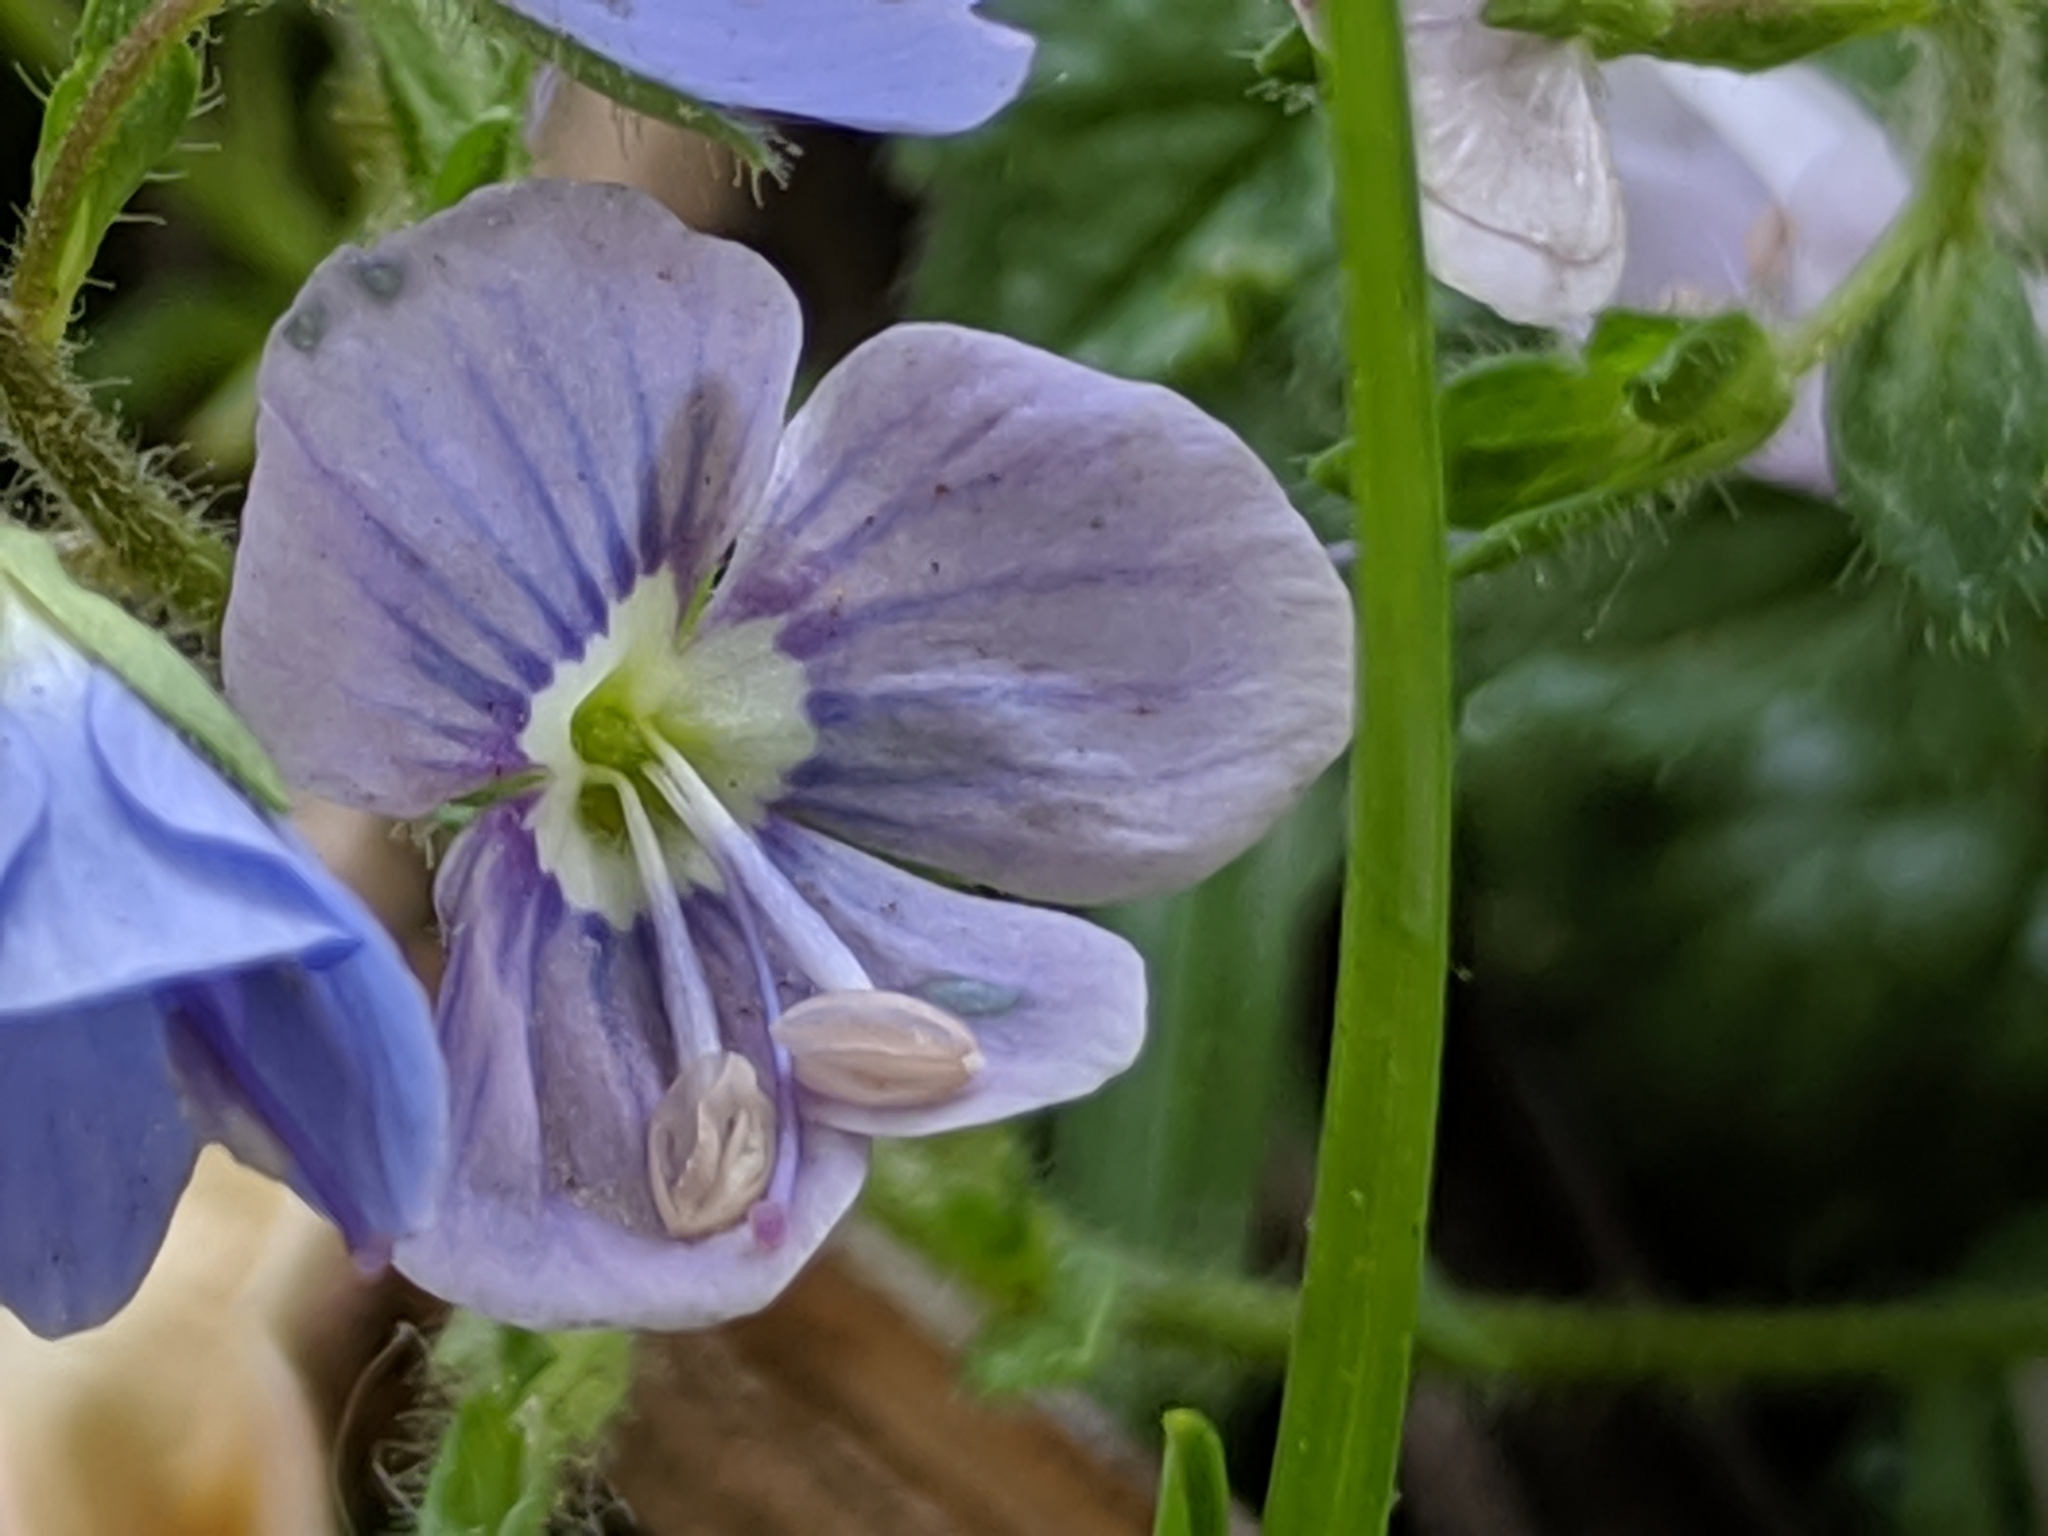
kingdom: Plantae
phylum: Tracheophyta
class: Magnoliopsida
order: Lamiales
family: Plantaginaceae
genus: Veronica
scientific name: Veronica chamaedrys
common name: Germander speedwell
